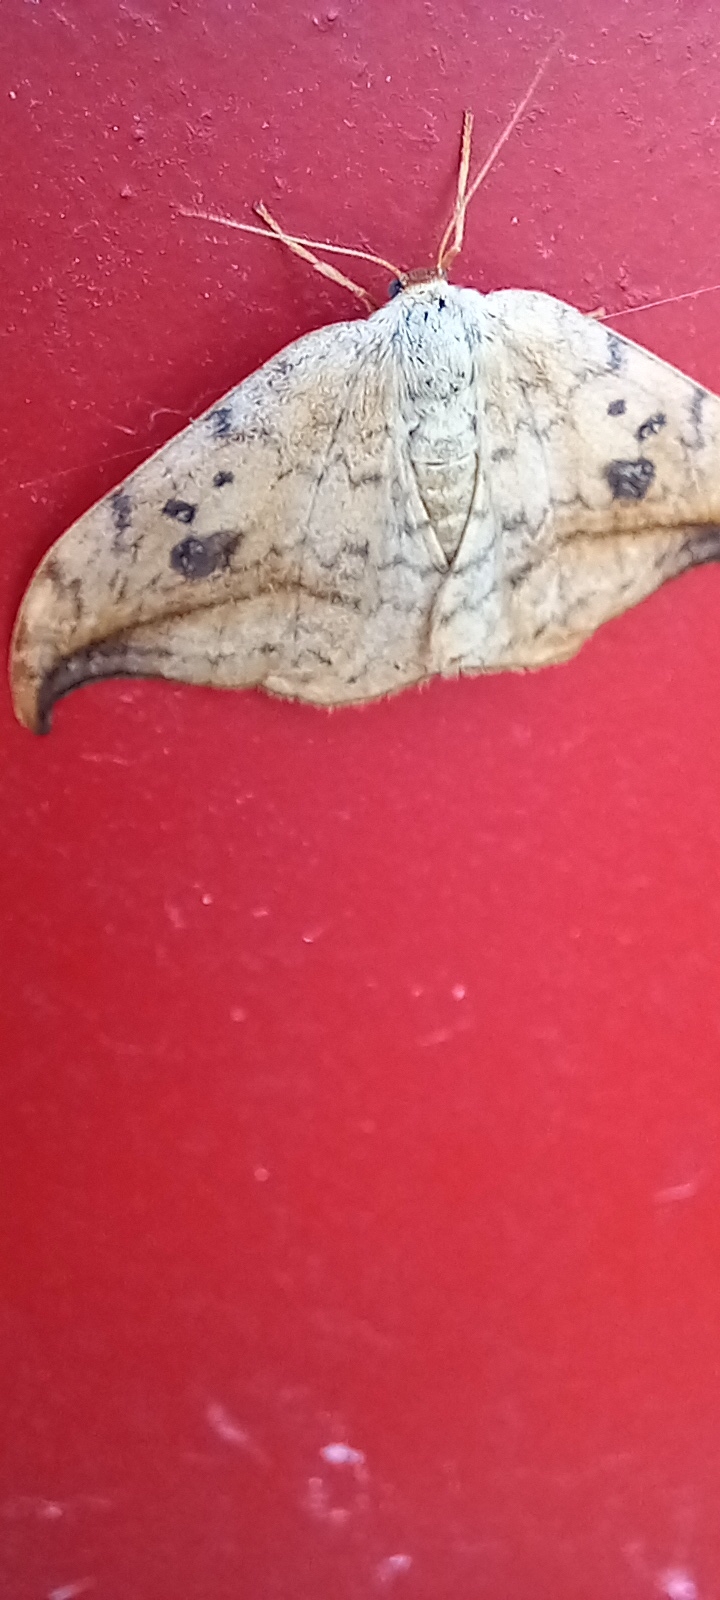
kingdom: Animalia
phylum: Arthropoda
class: Insecta
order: Lepidoptera
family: Drepanidae
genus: Drepana
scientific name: Drepana falcataria
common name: Pebble hook-tip
